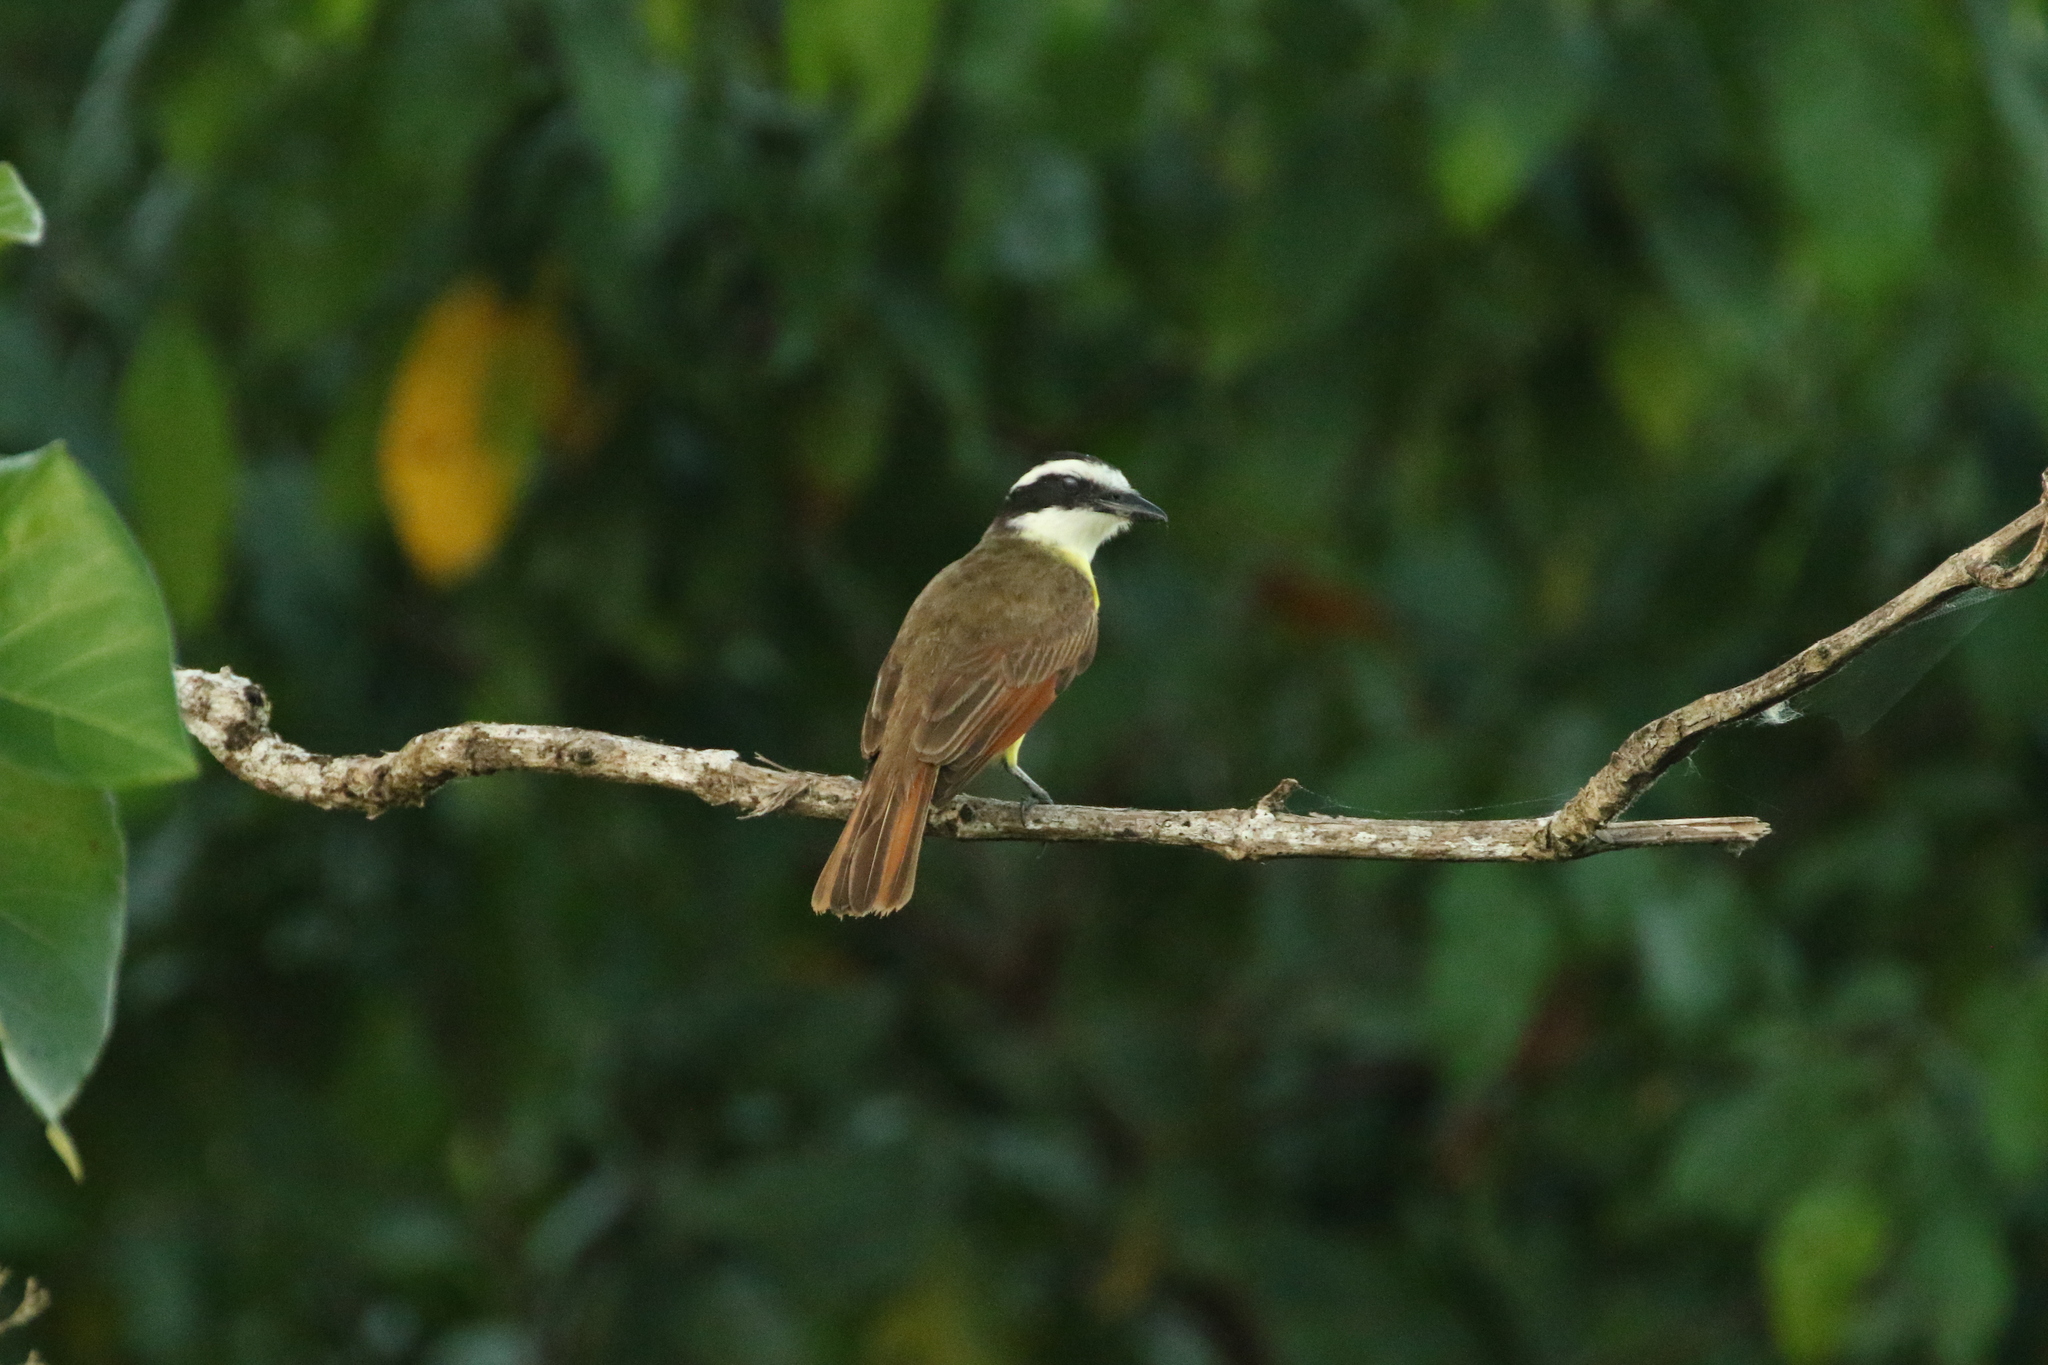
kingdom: Animalia
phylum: Chordata
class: Aves
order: Passeriformes
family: Tyrannidae
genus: Pitangus
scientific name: Pitangus sulphuratus
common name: Great kiskadee
